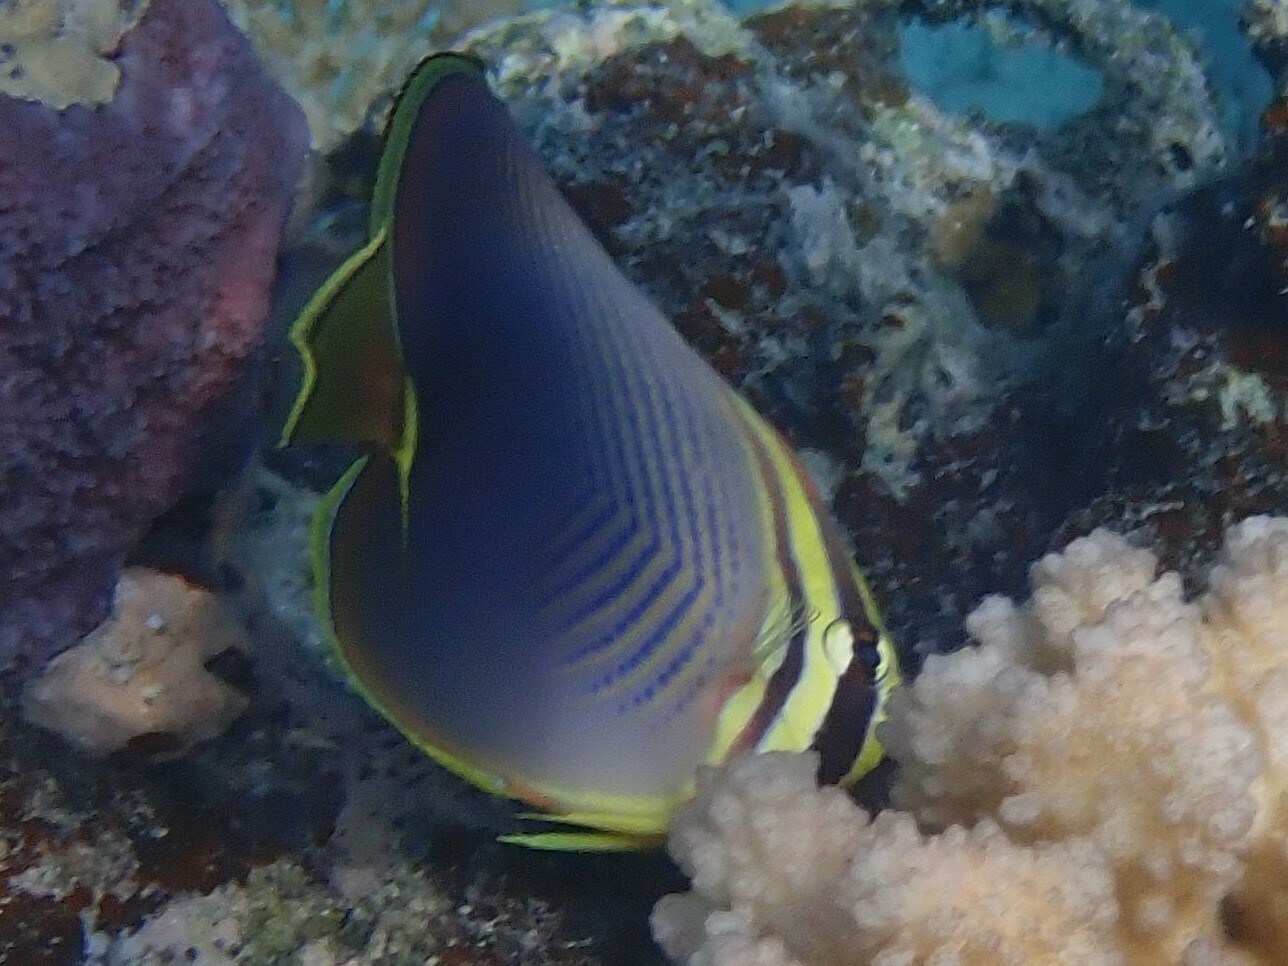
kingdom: Animalia
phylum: Chordata
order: Perciformes
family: Chaetodontidae
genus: Chaetodon
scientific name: Chaetodon baronessa
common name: Triangular butterflyfish
